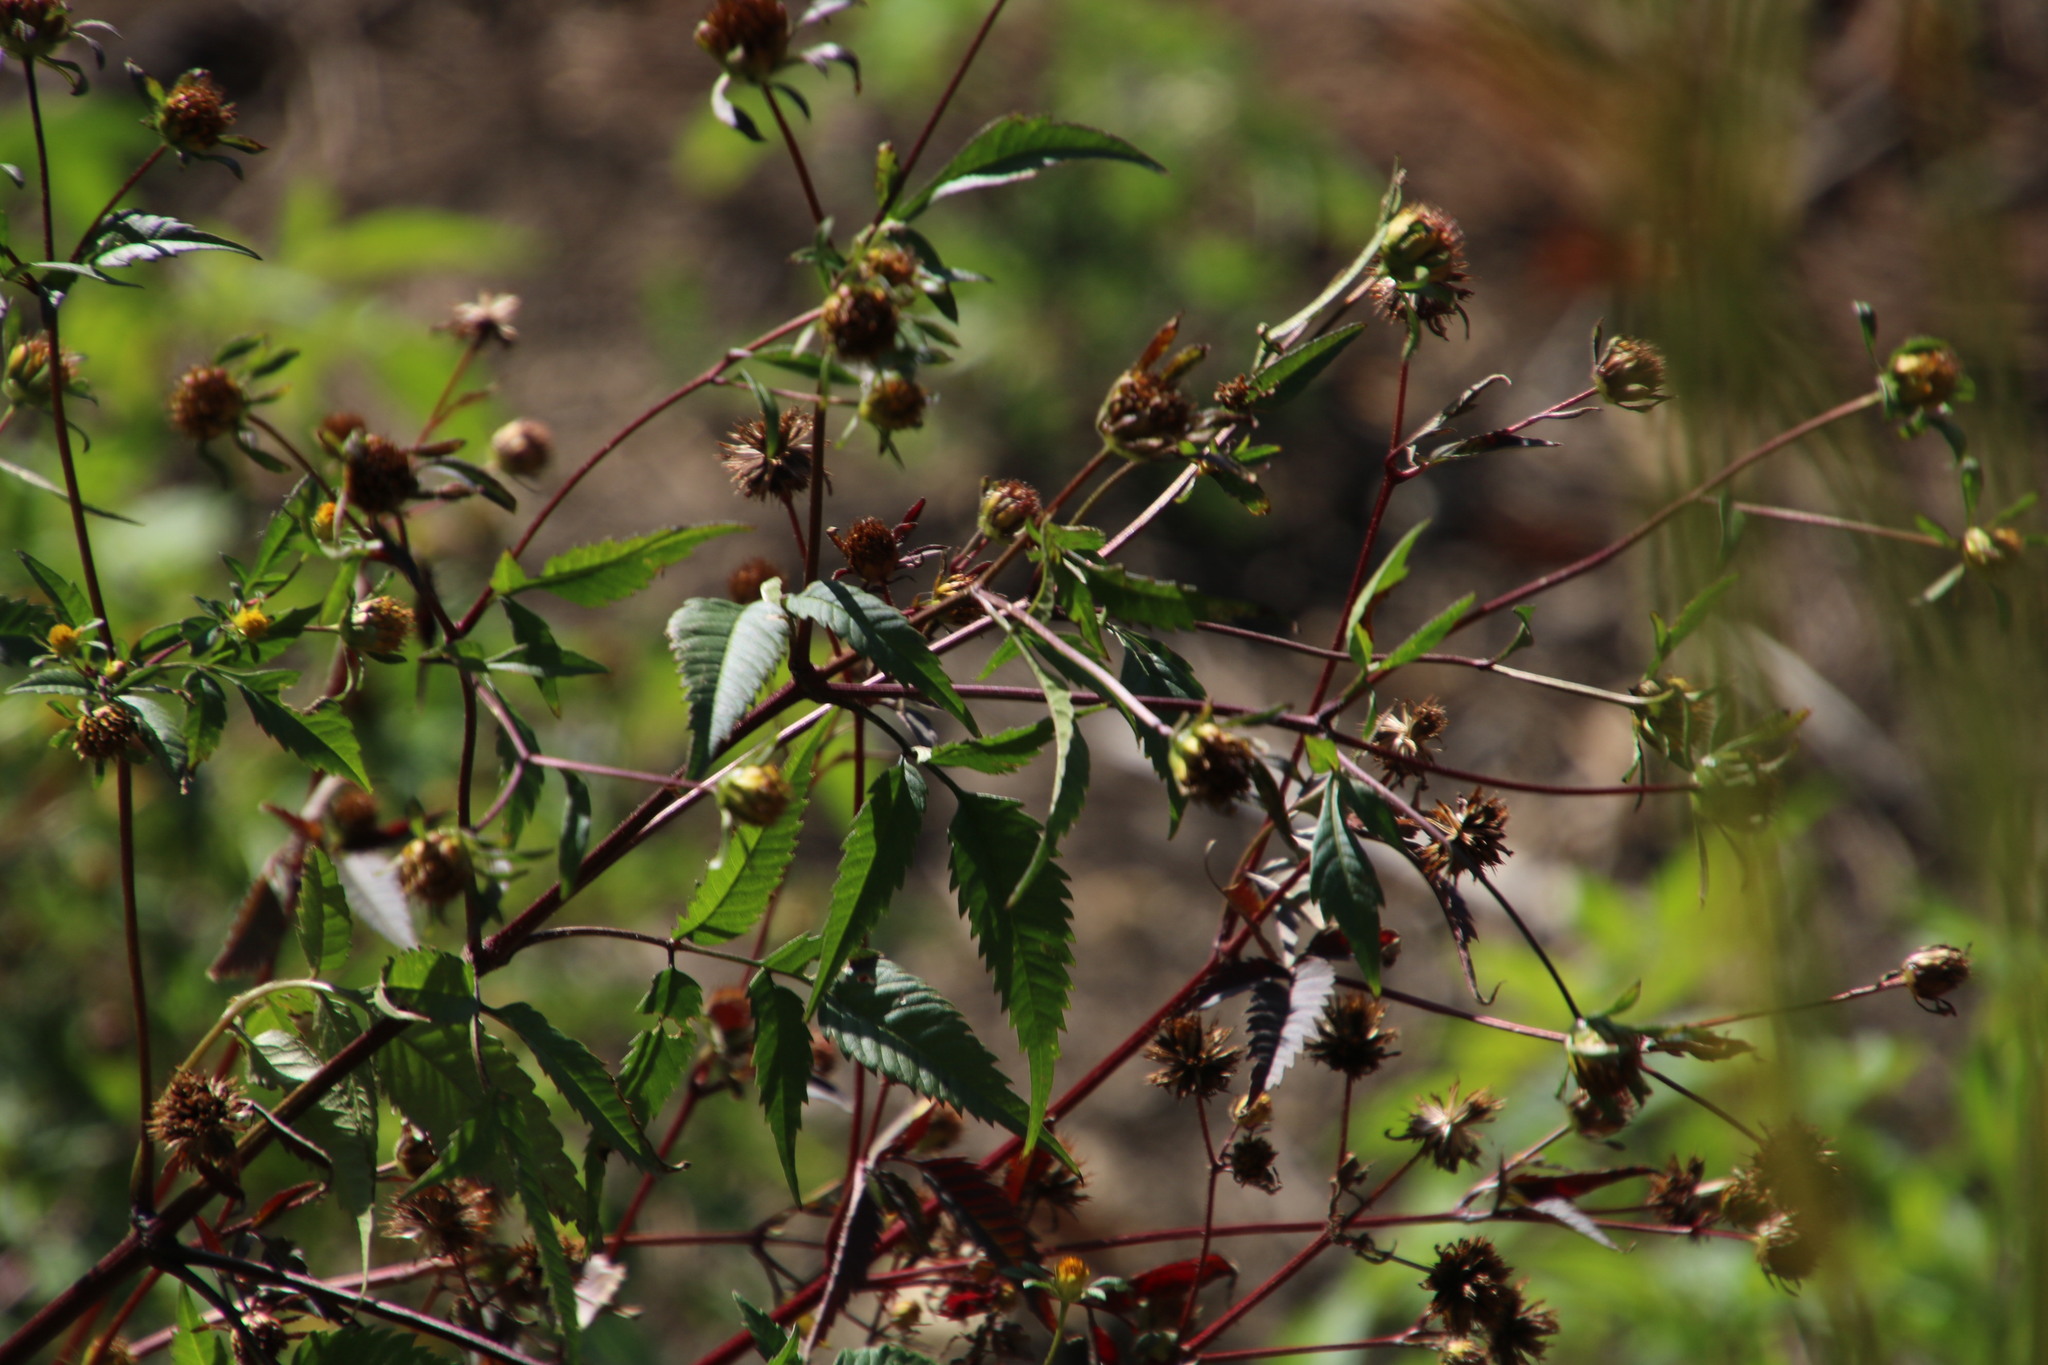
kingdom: Plantae
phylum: Tracheophyta
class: Magnoliopsida
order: Asterales
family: Asteraceae
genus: Bidens
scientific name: Bidens pilosa
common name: Black-jack
